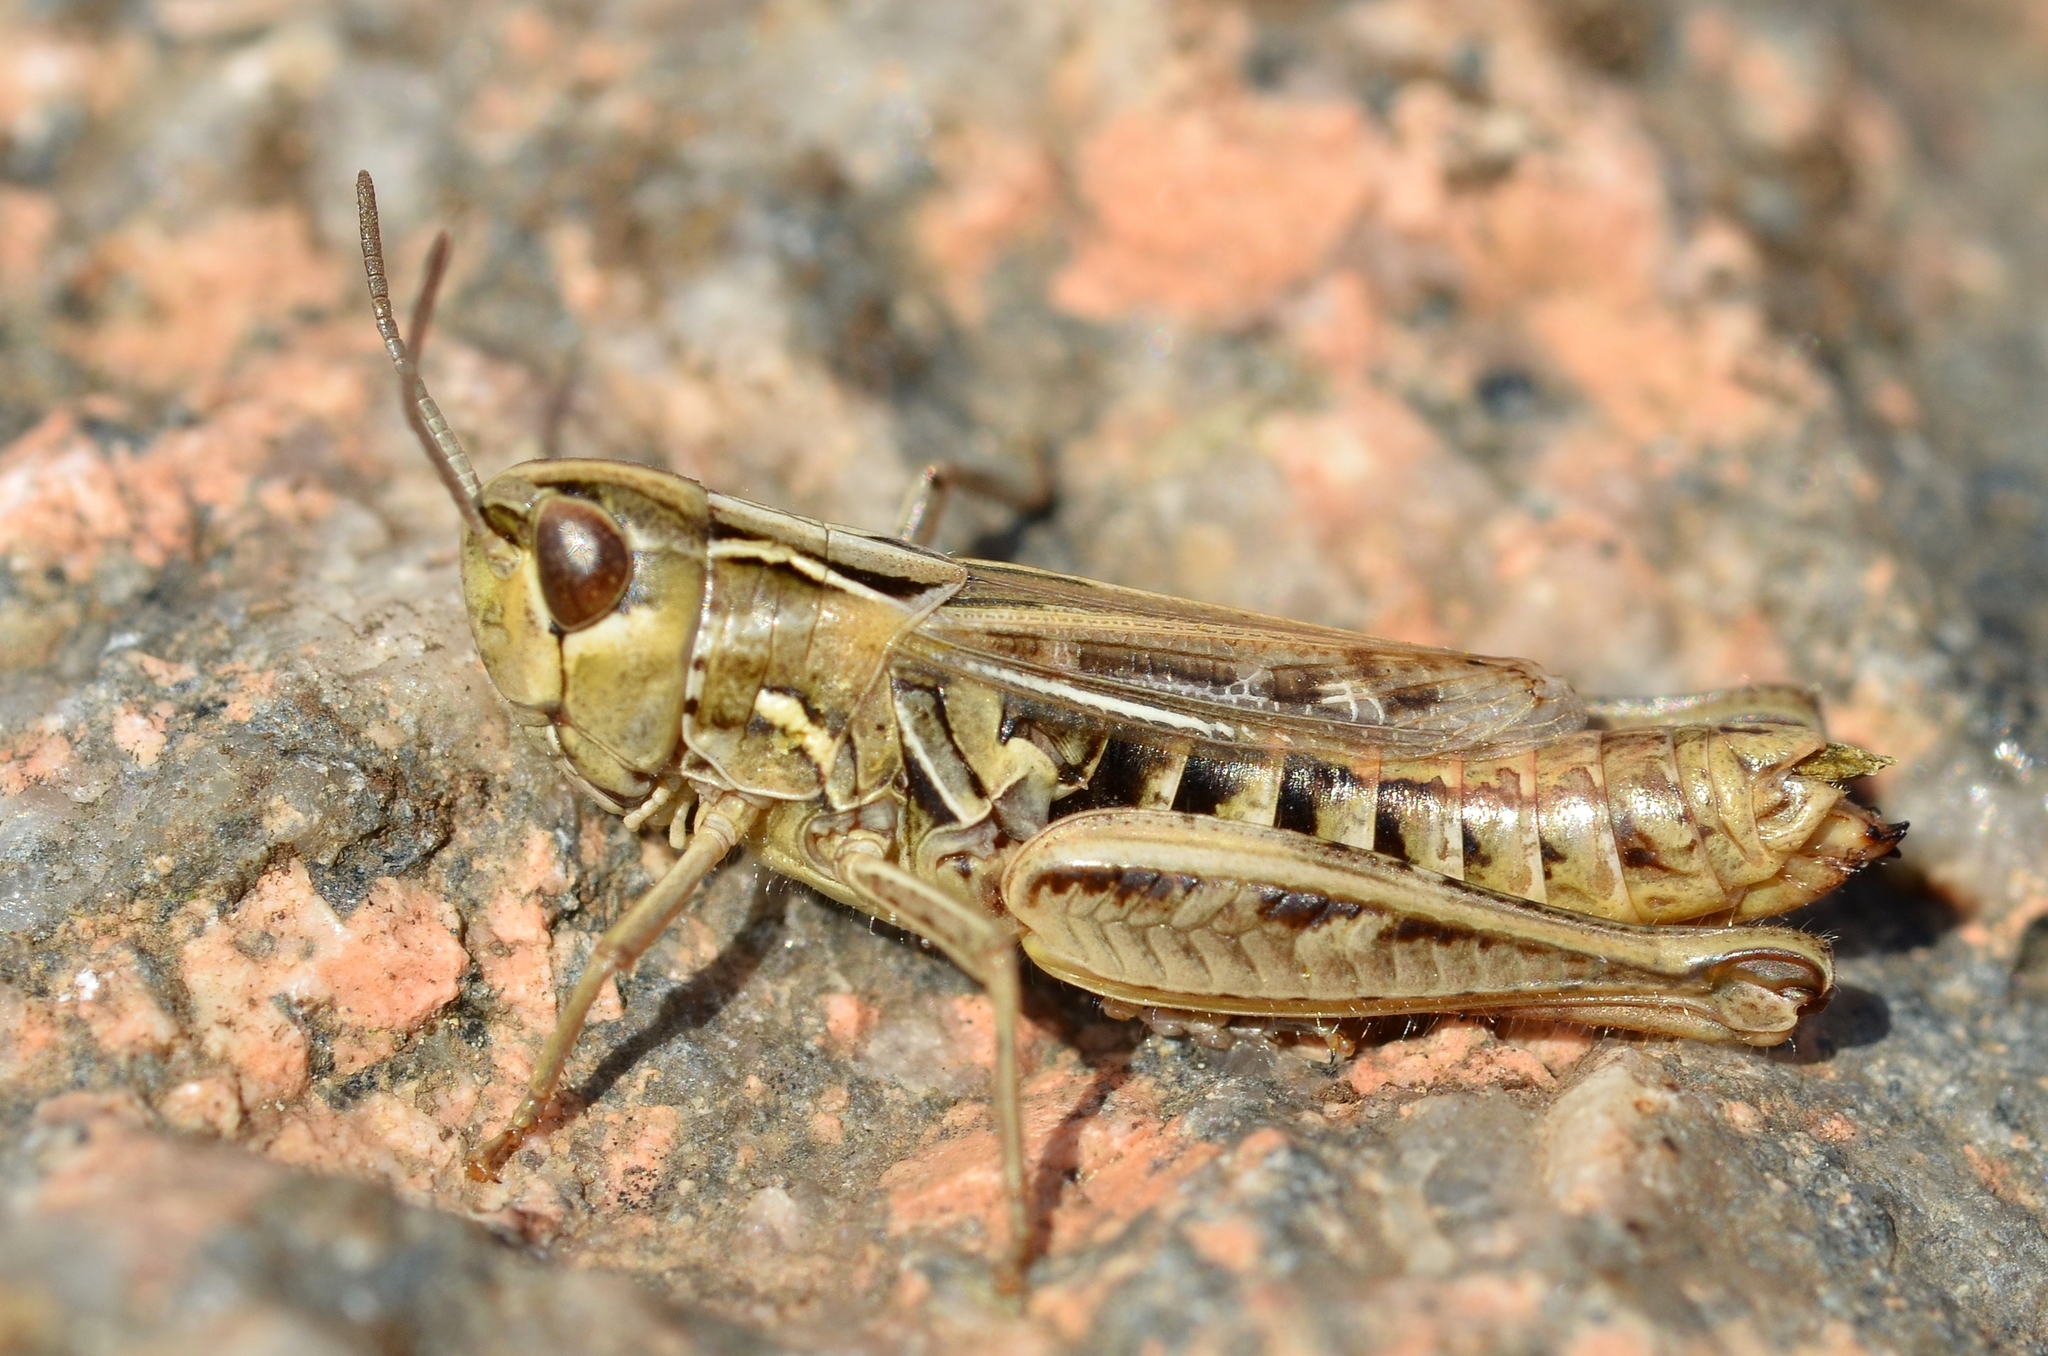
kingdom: Animalia
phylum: Arthropoda
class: Insecta
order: Orthoptera
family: Acrididae
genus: Stenobothrus
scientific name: Stenobothrus stigmaticus
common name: Lesser mottled grasshopper
